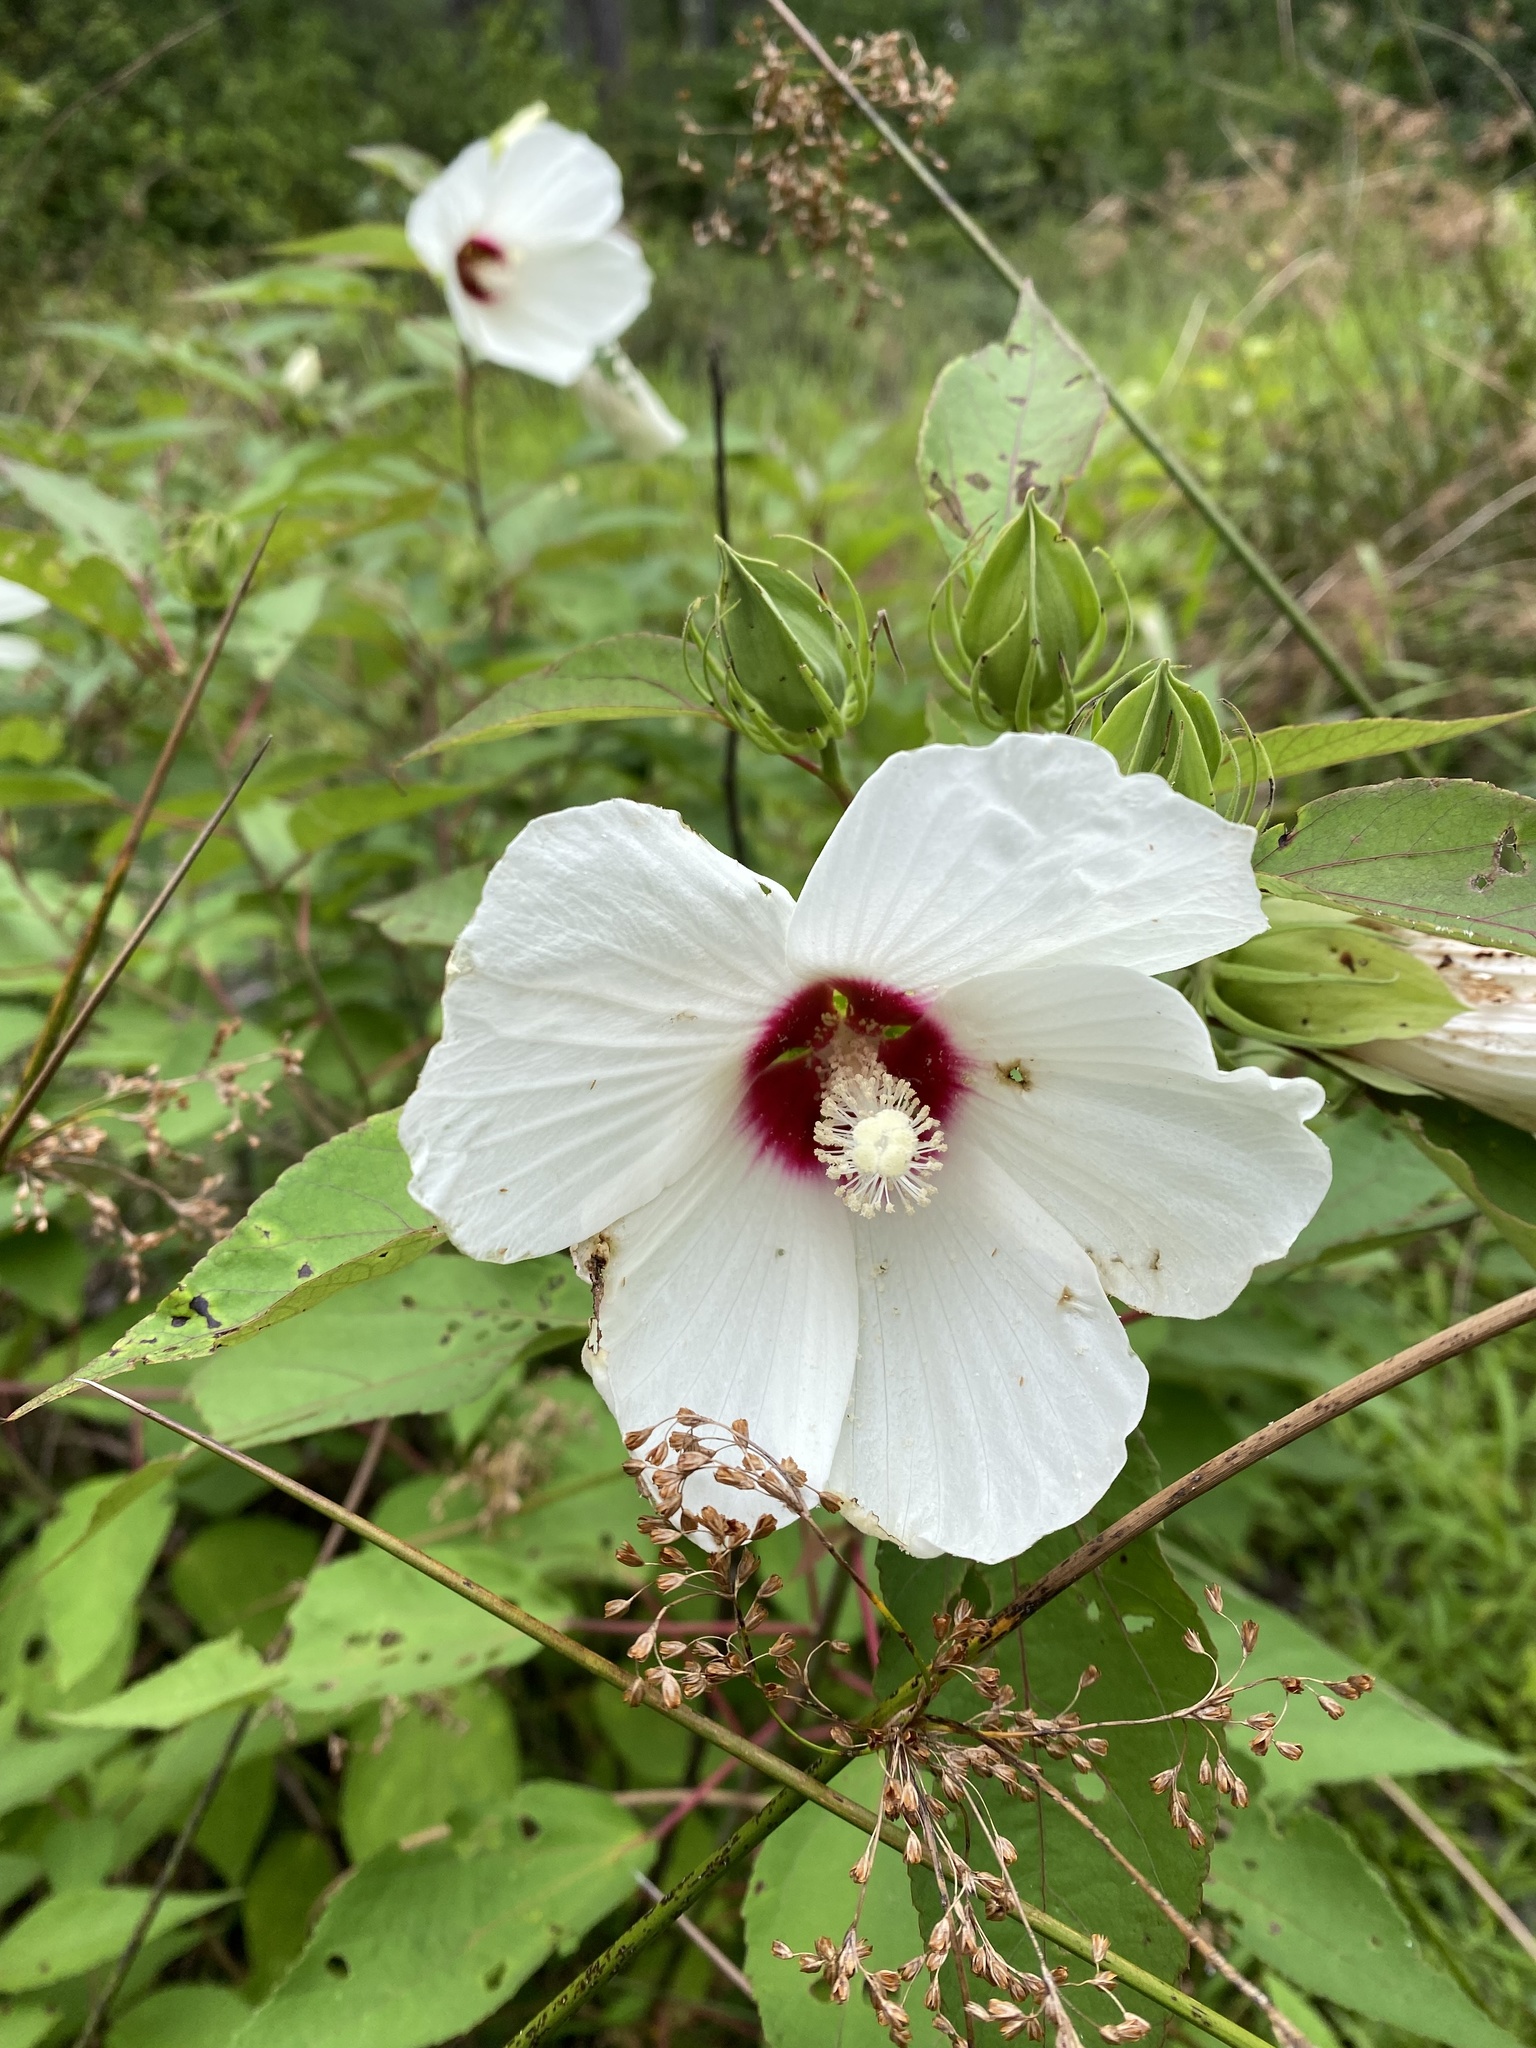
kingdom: Plantae
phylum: Tracheophyta
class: Magnoliopsida
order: Malvales
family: Malvaceae
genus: Hibiscus
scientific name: Hibiscus moscheutos
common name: Common rose-mallow
